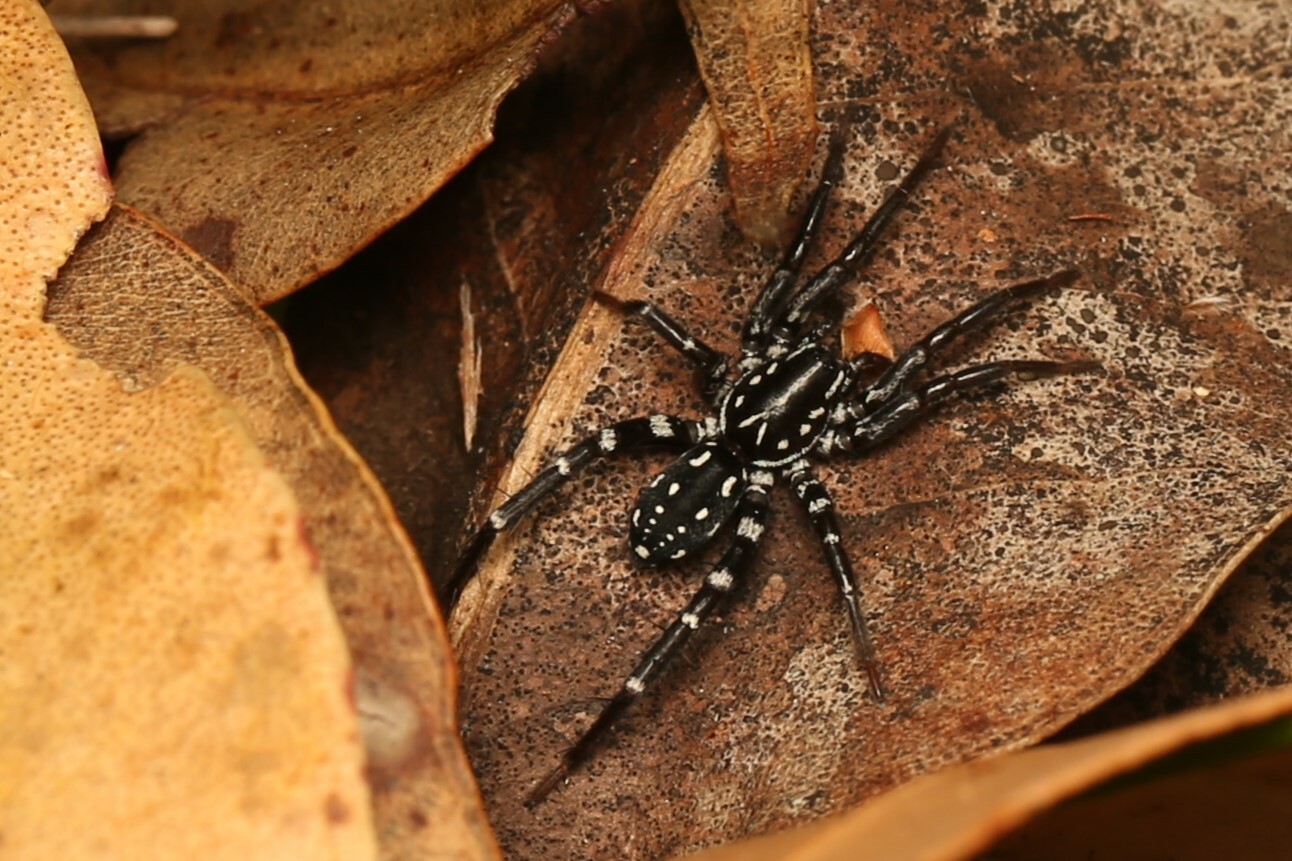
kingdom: Animalia
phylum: Arthropoda
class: Arachnida
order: Araneae
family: Corinnidae
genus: Nyssus
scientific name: Nyssus albopunctatus
